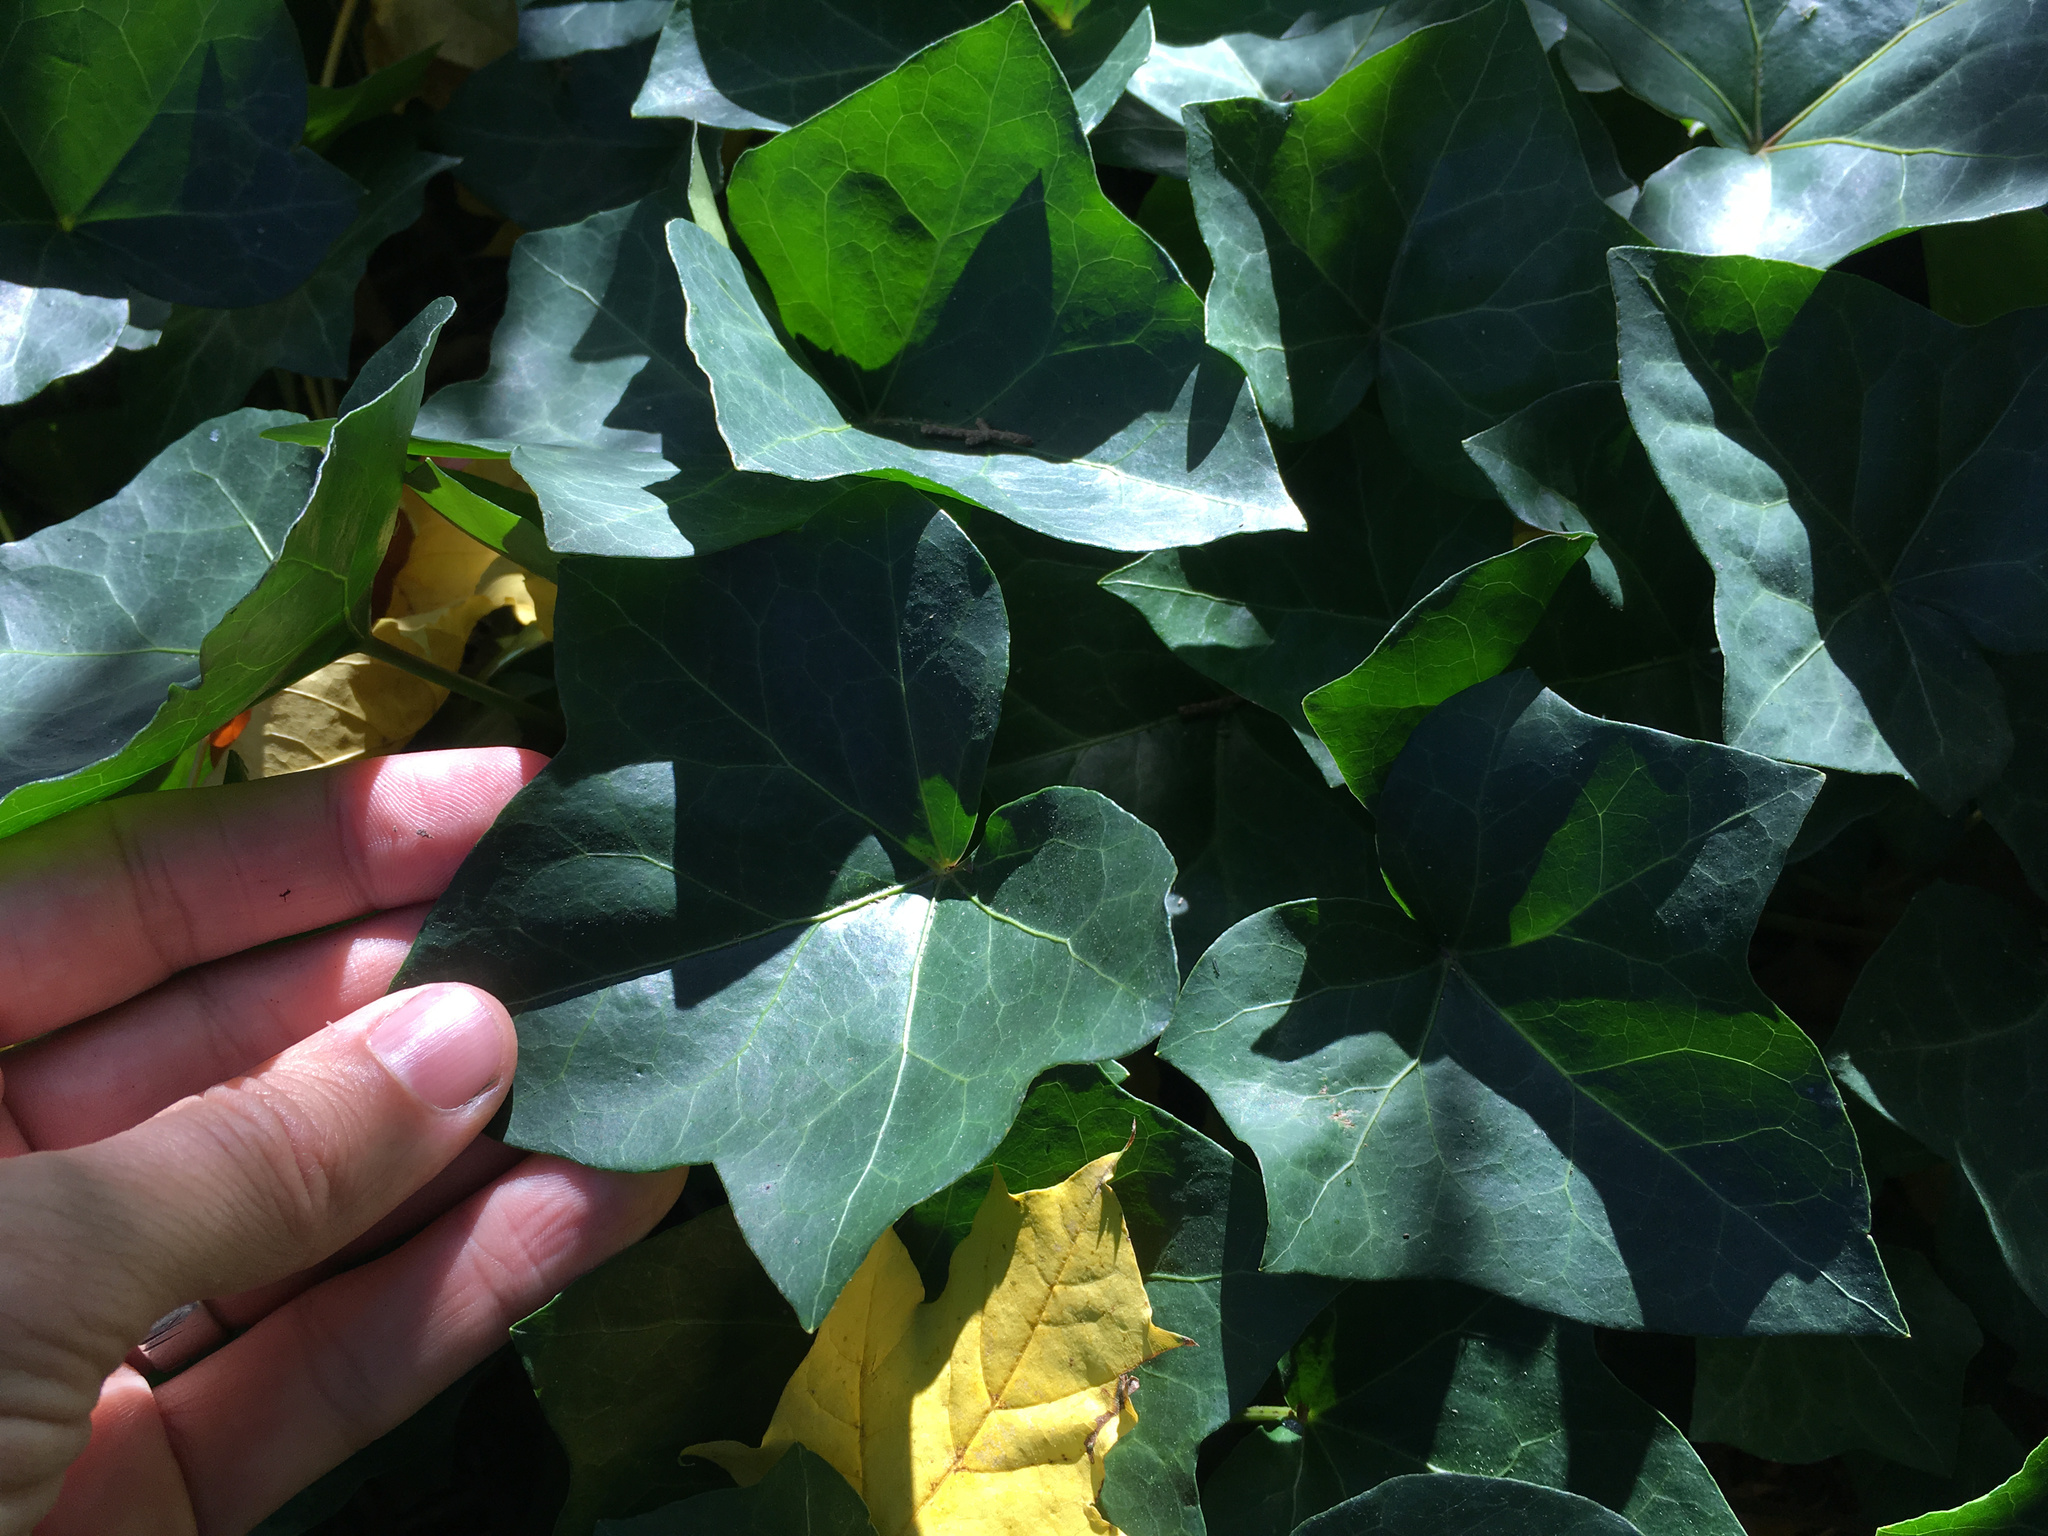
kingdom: Plantae
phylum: Tracheophyta
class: Magnoliopsida
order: Apiales
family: Araliaceae
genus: Hedera
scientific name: Hedera helix
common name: Ivy
